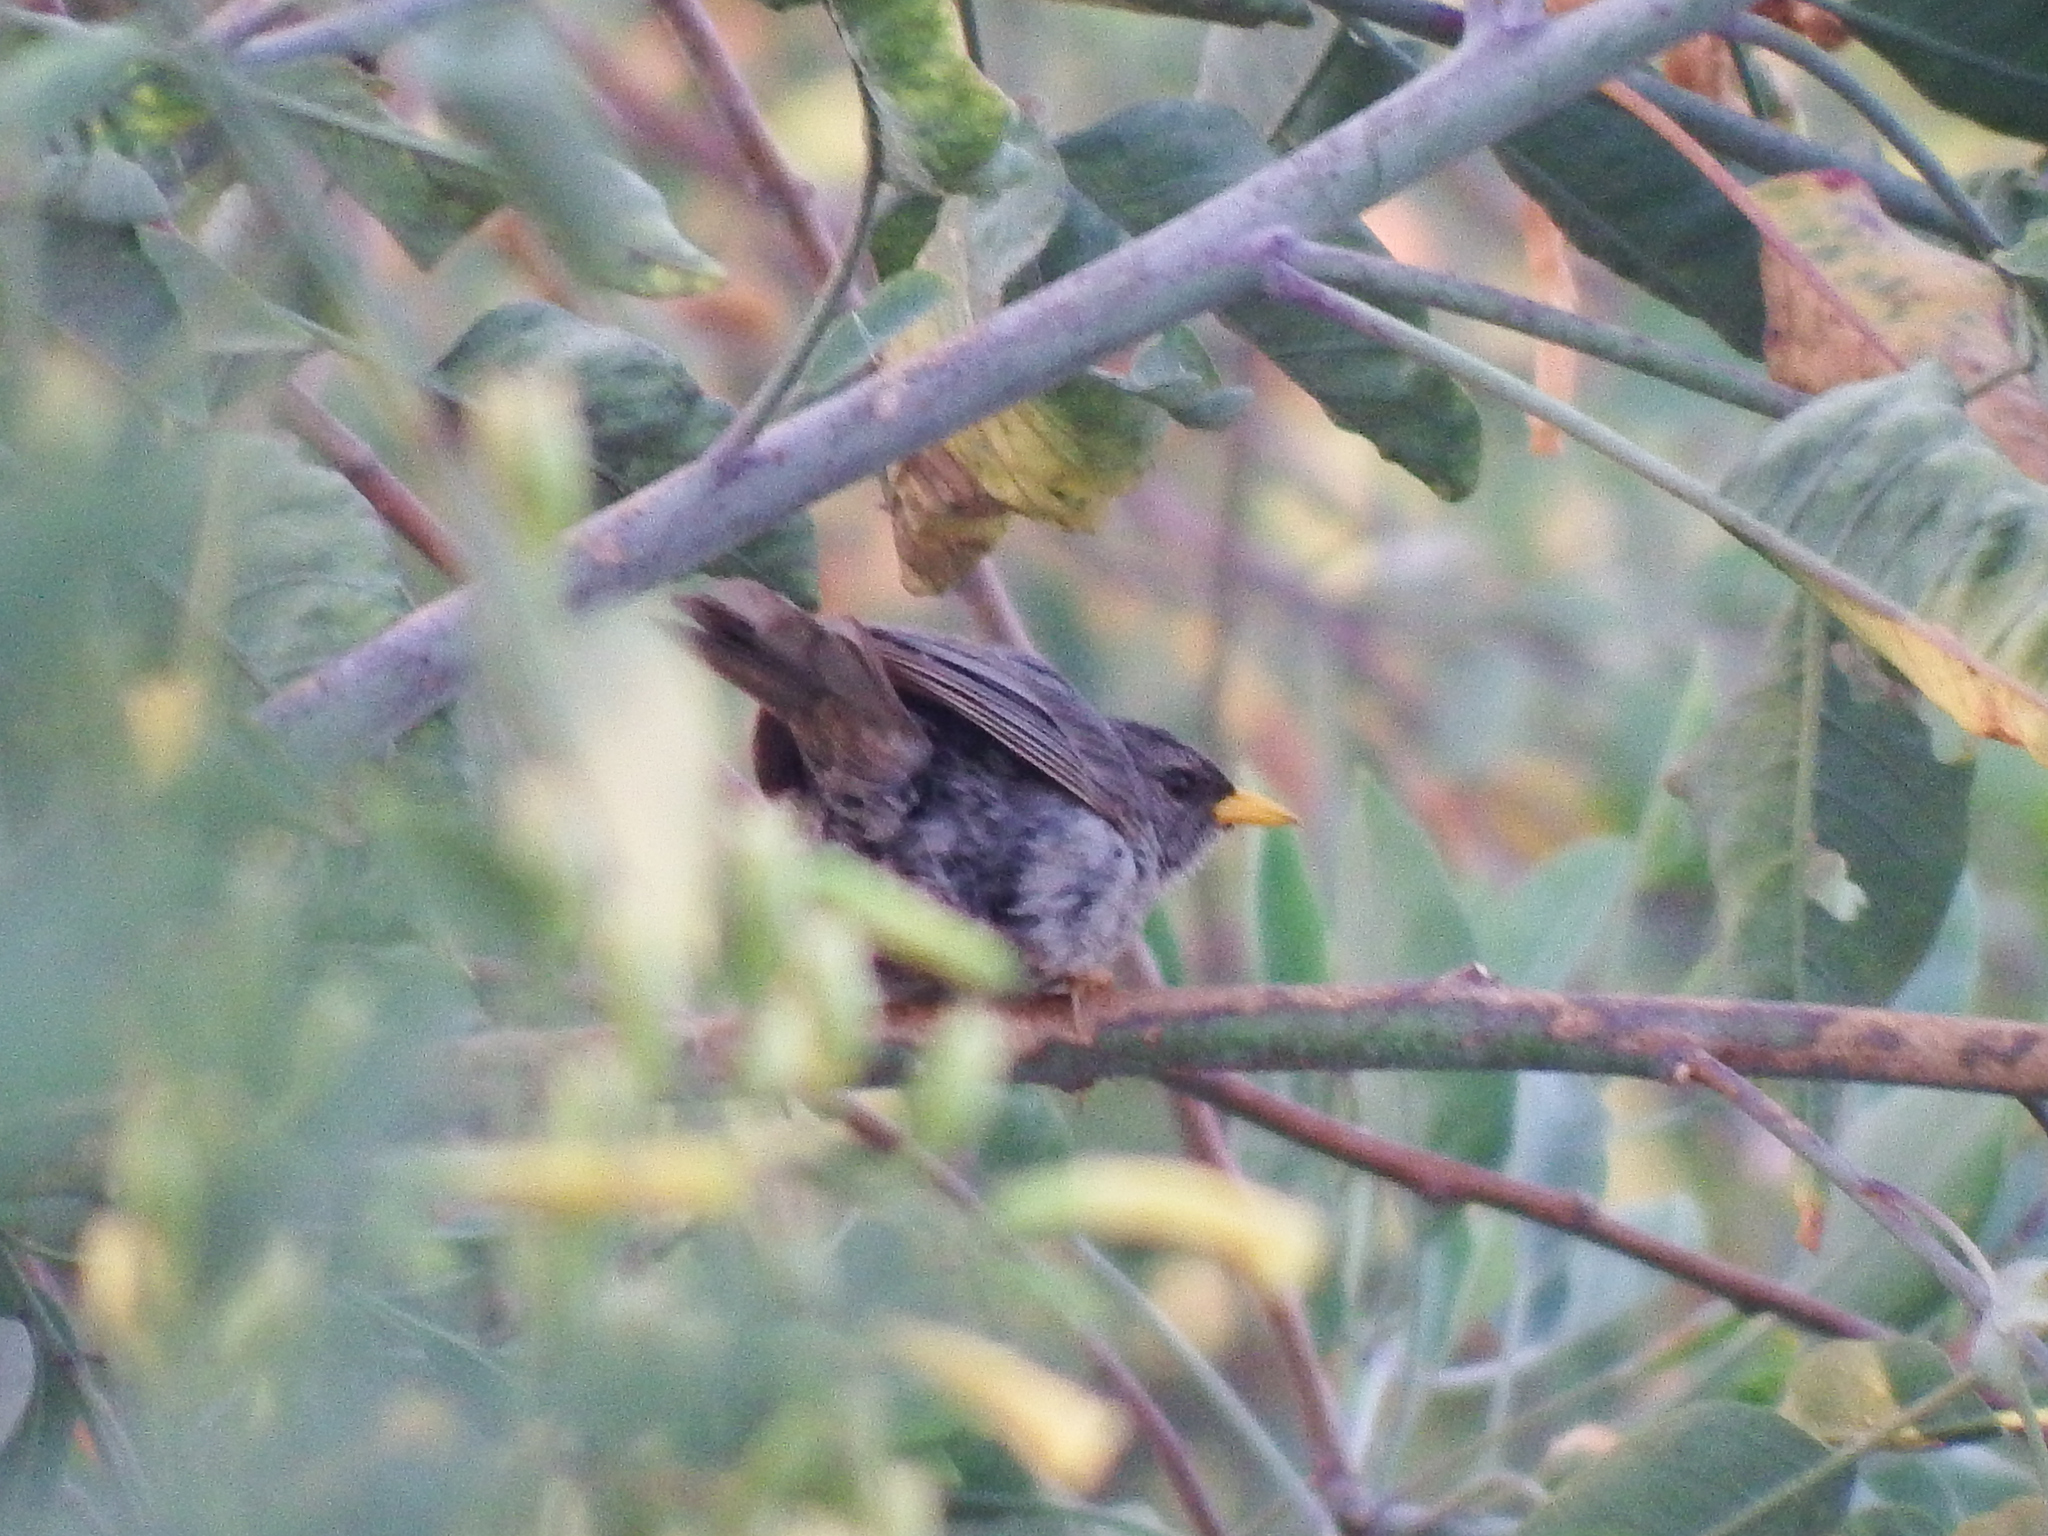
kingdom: Animalia
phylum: Chordata
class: Aves
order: Passeriformes
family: Thraupidae
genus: Xenospingus
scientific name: Xenospingus concolor
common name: Slender-billed finch
